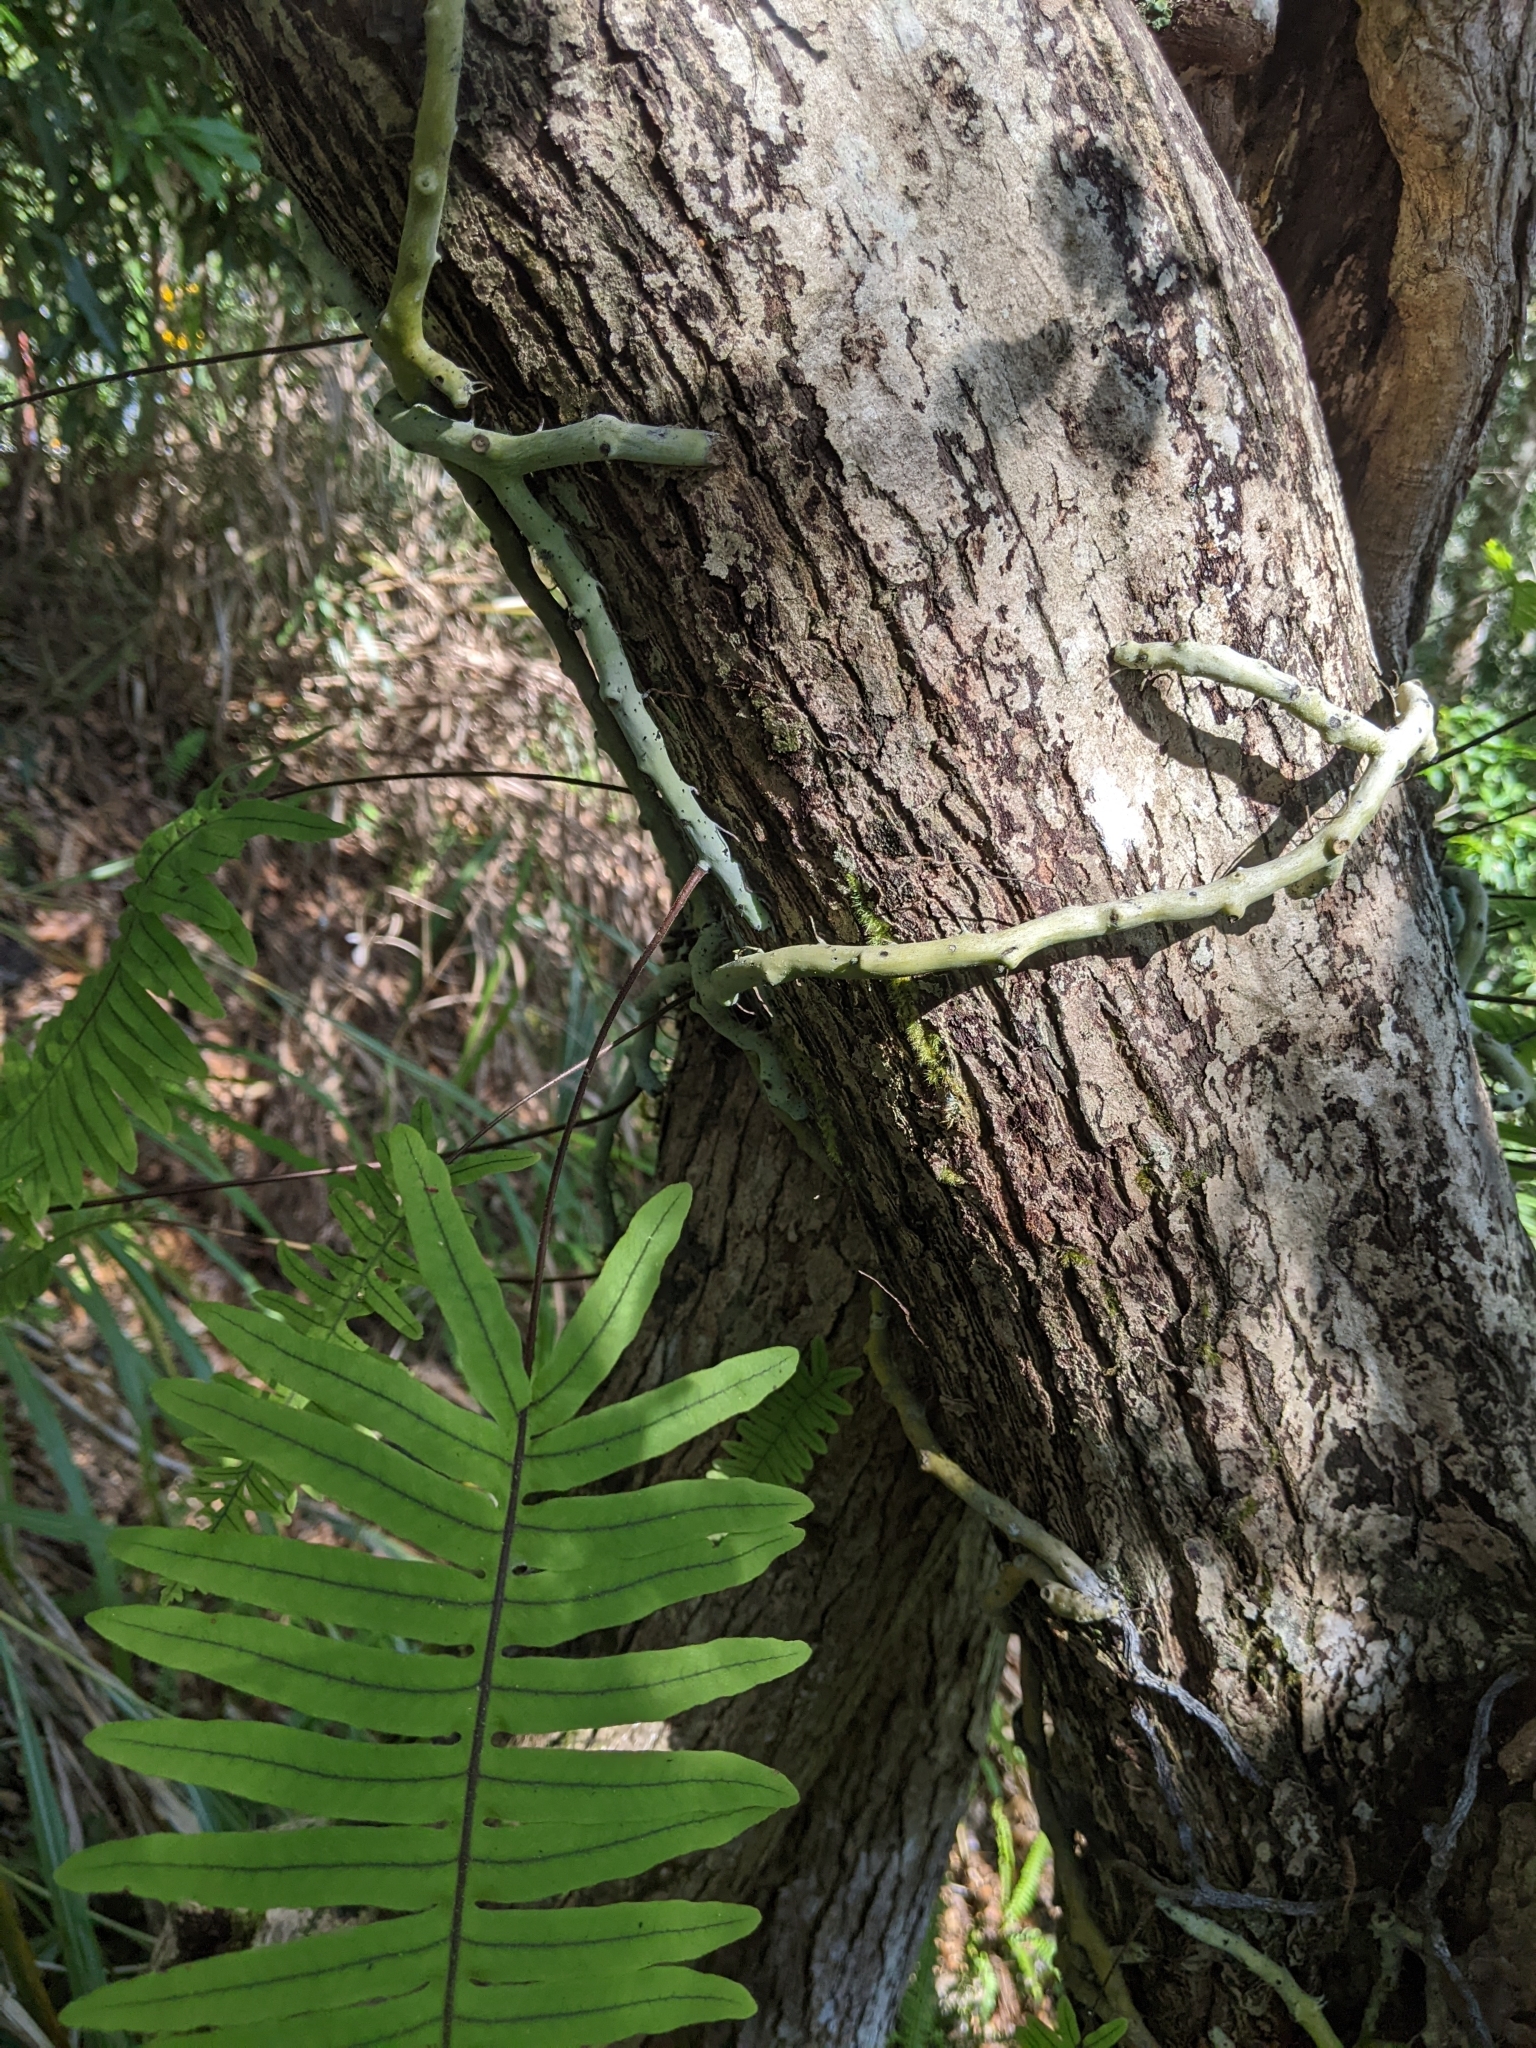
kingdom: Plantae
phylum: Tracheophyta
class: Polypodiopsida
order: Polypodiales
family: Polypodiaceae
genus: Goniophlebium
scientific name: Goniophlebium formosanum
